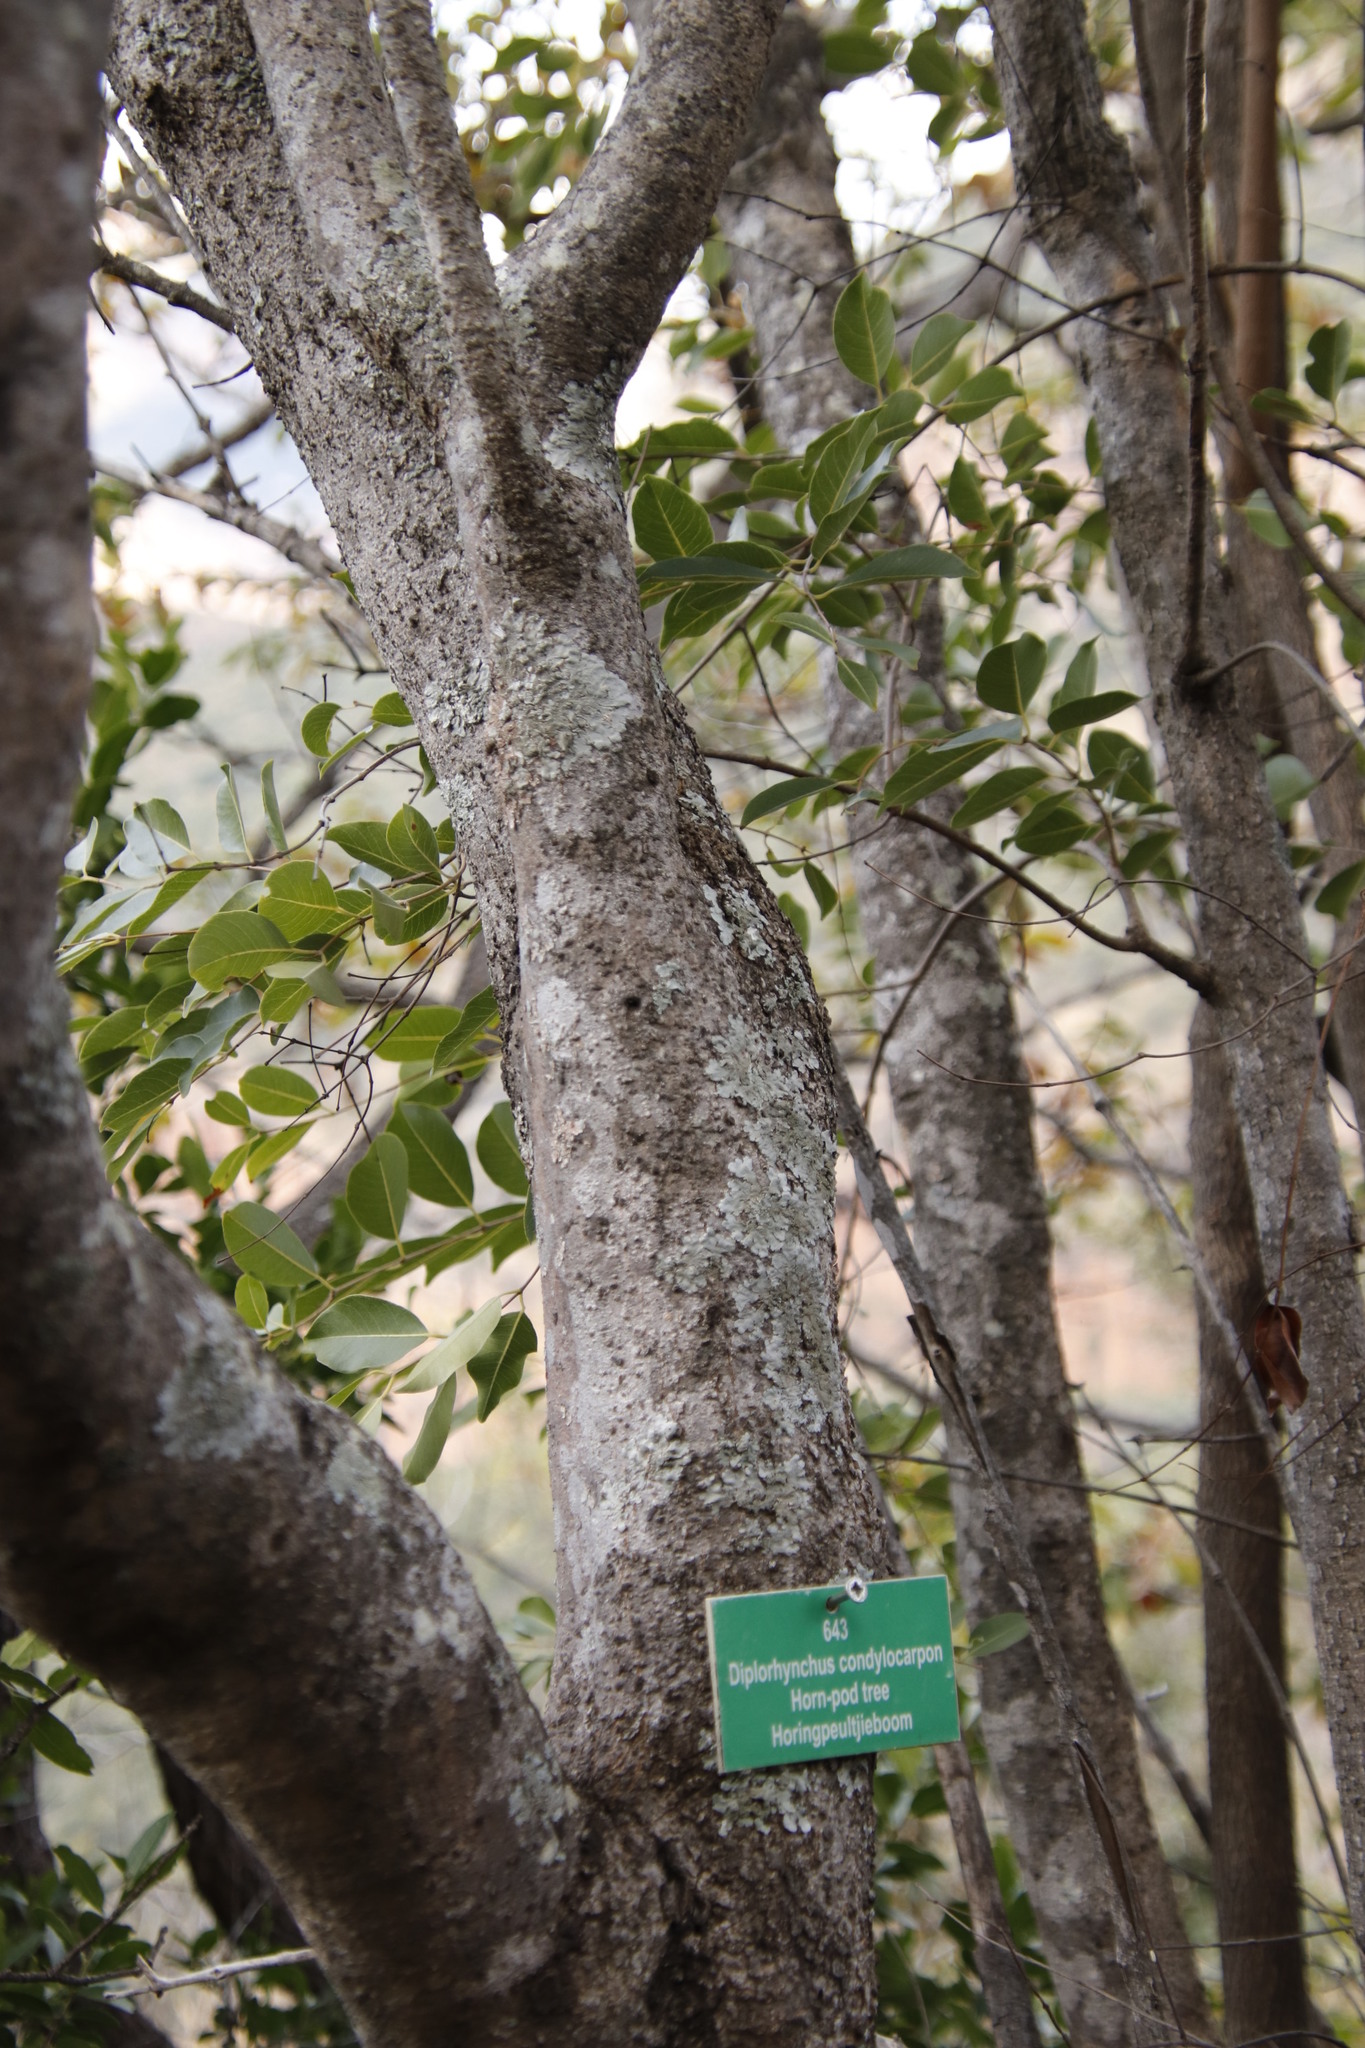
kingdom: Plantae
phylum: Tracheophyta
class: Magnoliopsida
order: Gentianales
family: Apocynaceae
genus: Diplorhynchus
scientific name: Diplorhynchus condylocarpon
